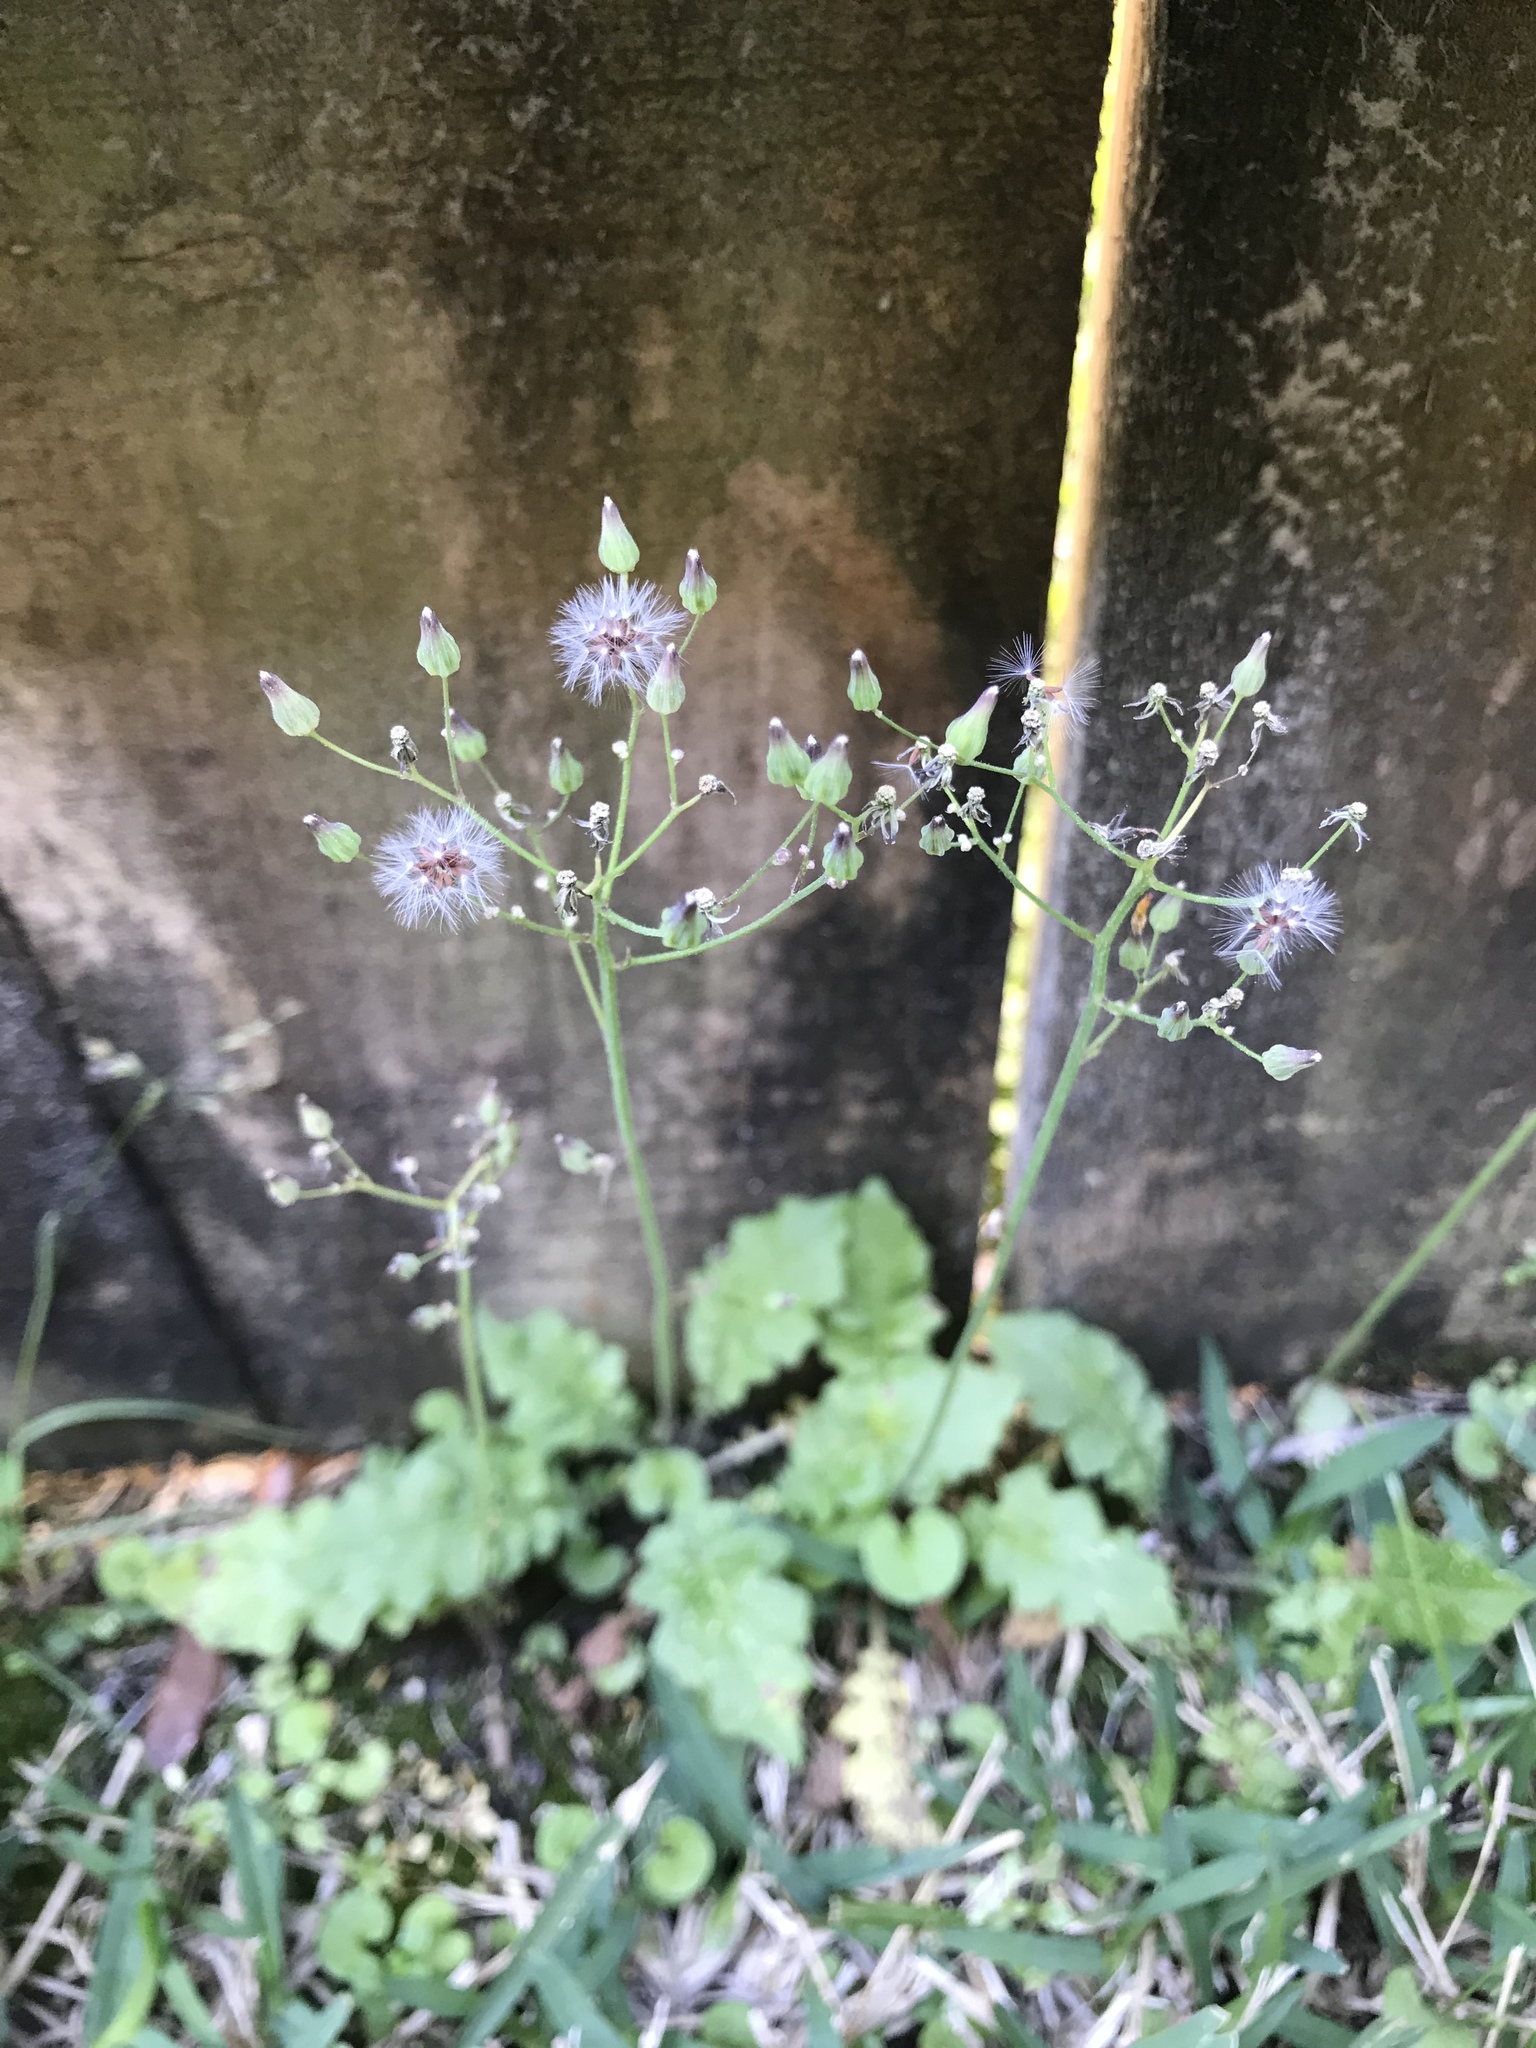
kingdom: Plantae
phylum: Tracheophyta
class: Magnoliopsida
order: Asterales
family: Asteraceae
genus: Youngia
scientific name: Youngia japonica
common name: Oriental false hawksbeard
